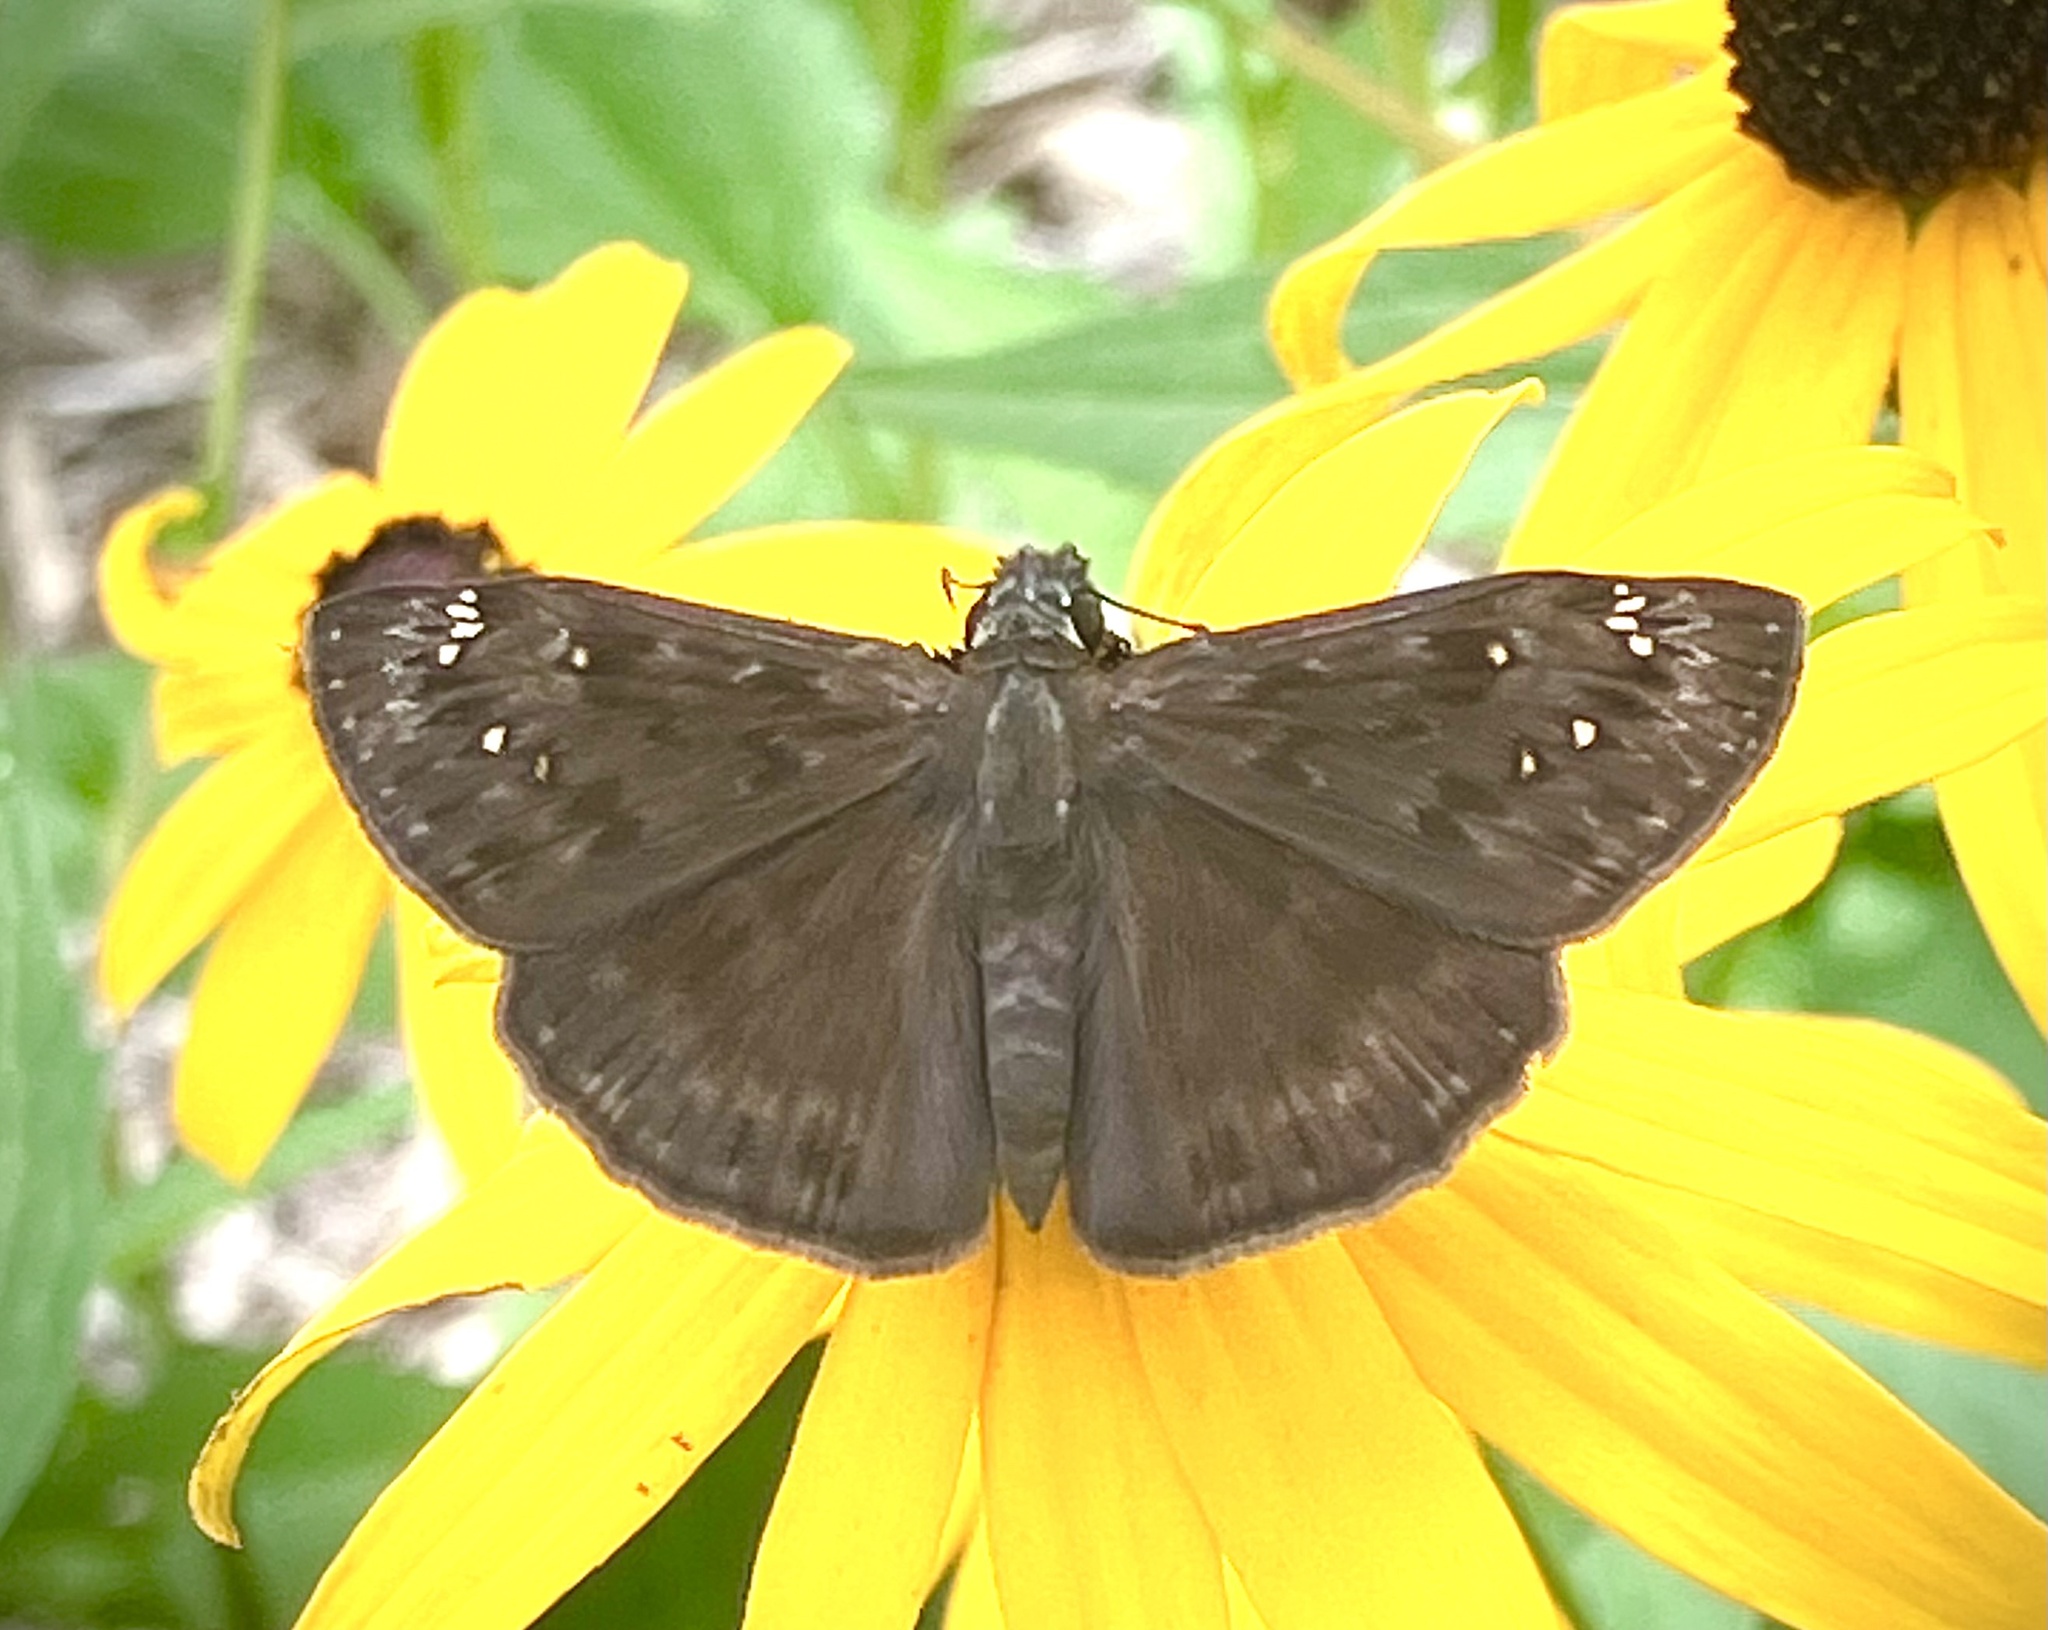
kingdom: Animalia
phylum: Arthropoda
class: Insecta
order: Lepidoptera
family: Hesperiidae
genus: Erynnis
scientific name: Erynnis horatius
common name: Horace's duskywing
